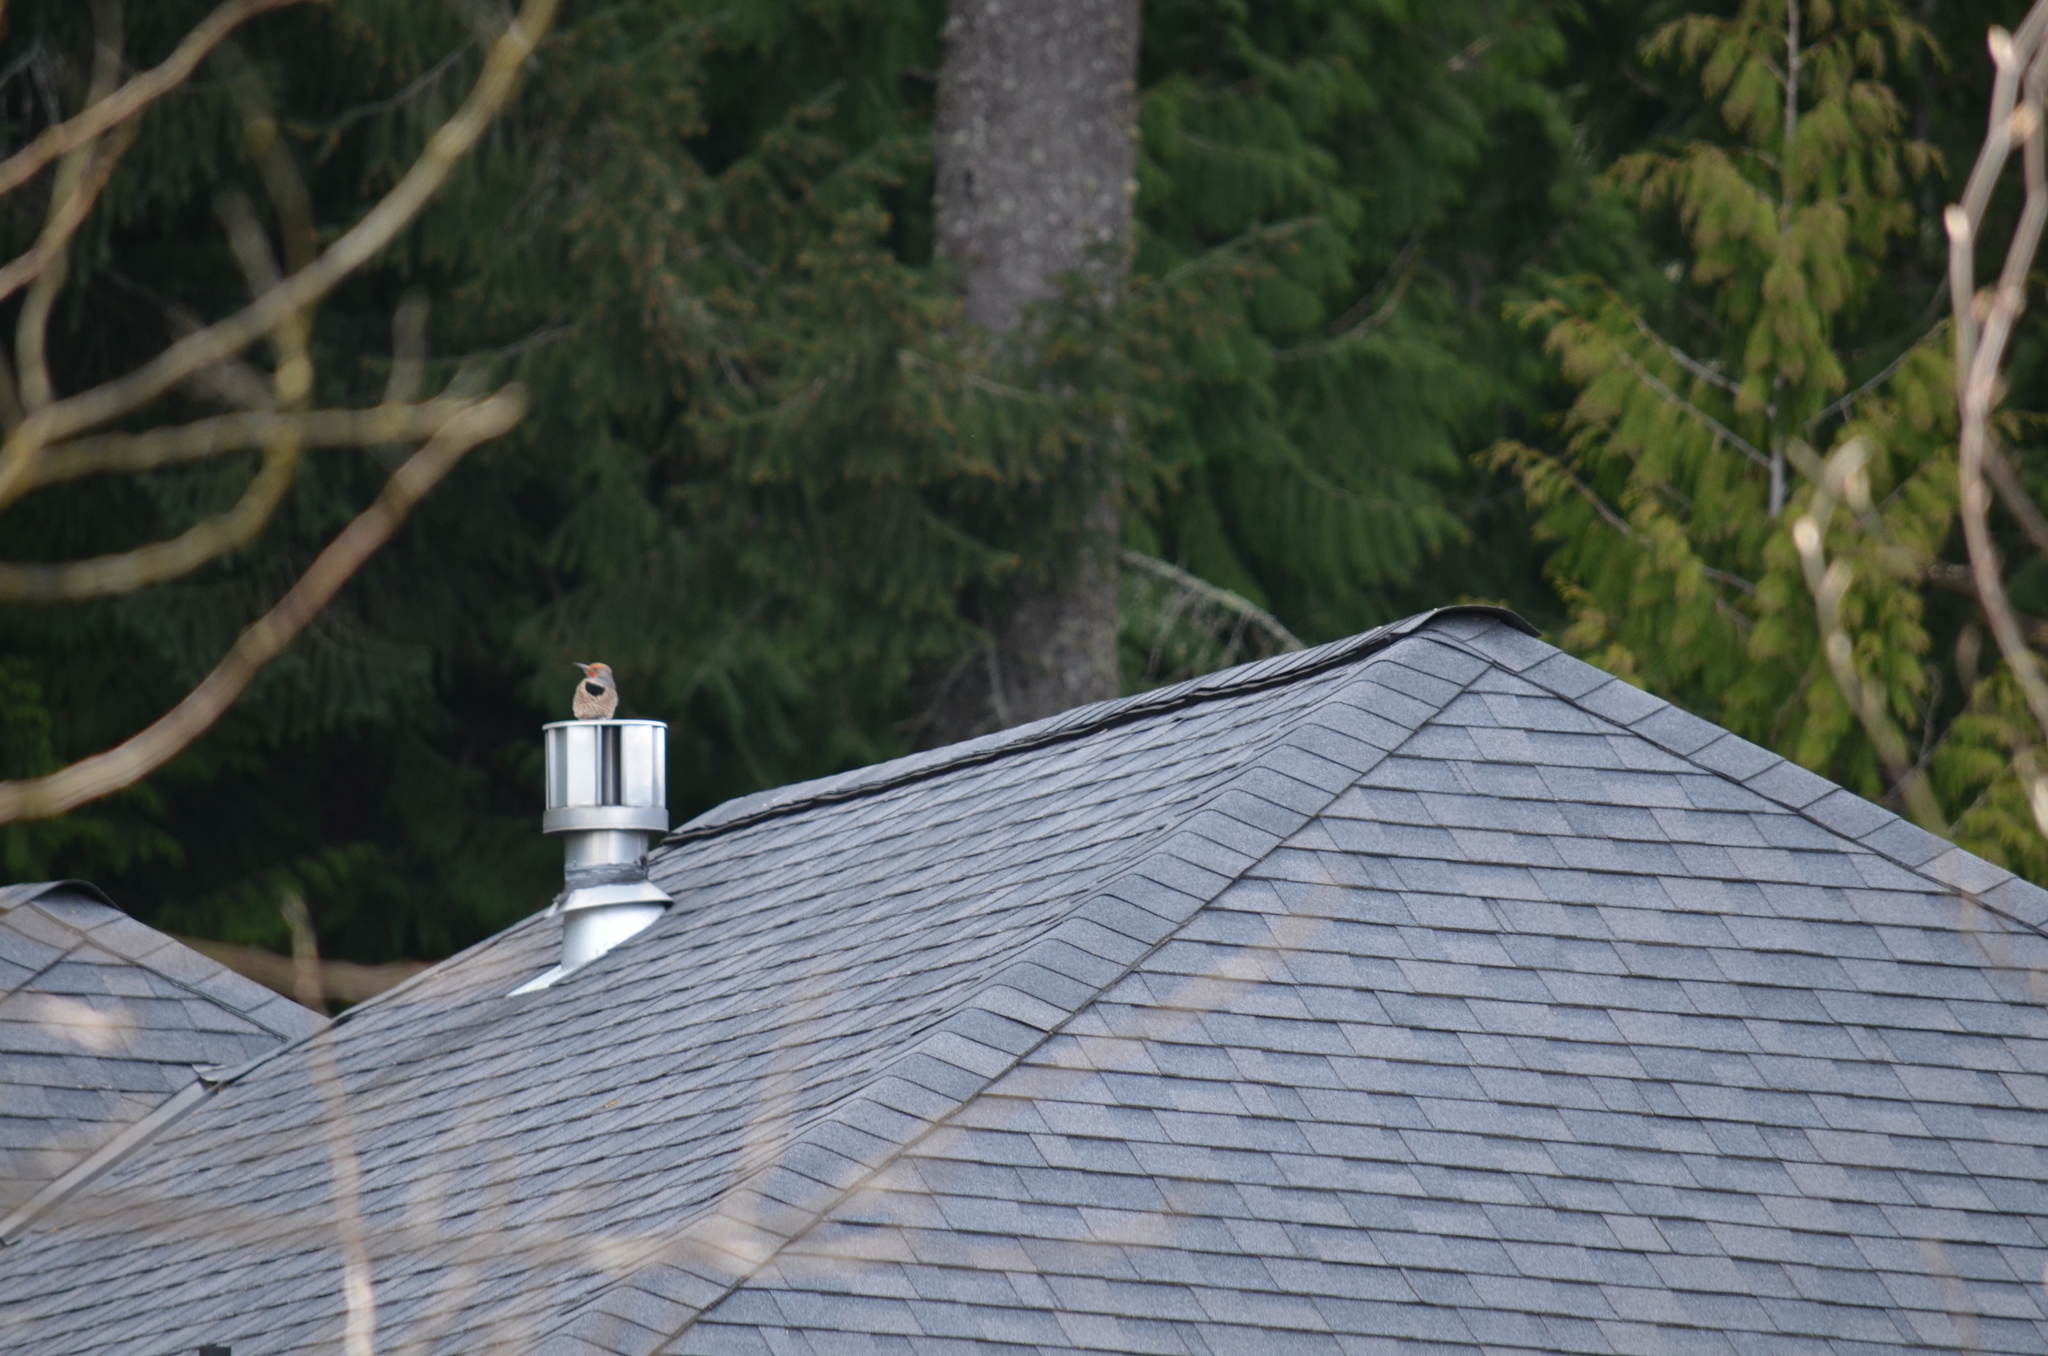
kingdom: Animalia
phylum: Chordata
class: Aves
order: Piciformes
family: Picidae
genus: Colaptes
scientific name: Colaptes auratus
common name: Northern flicker
